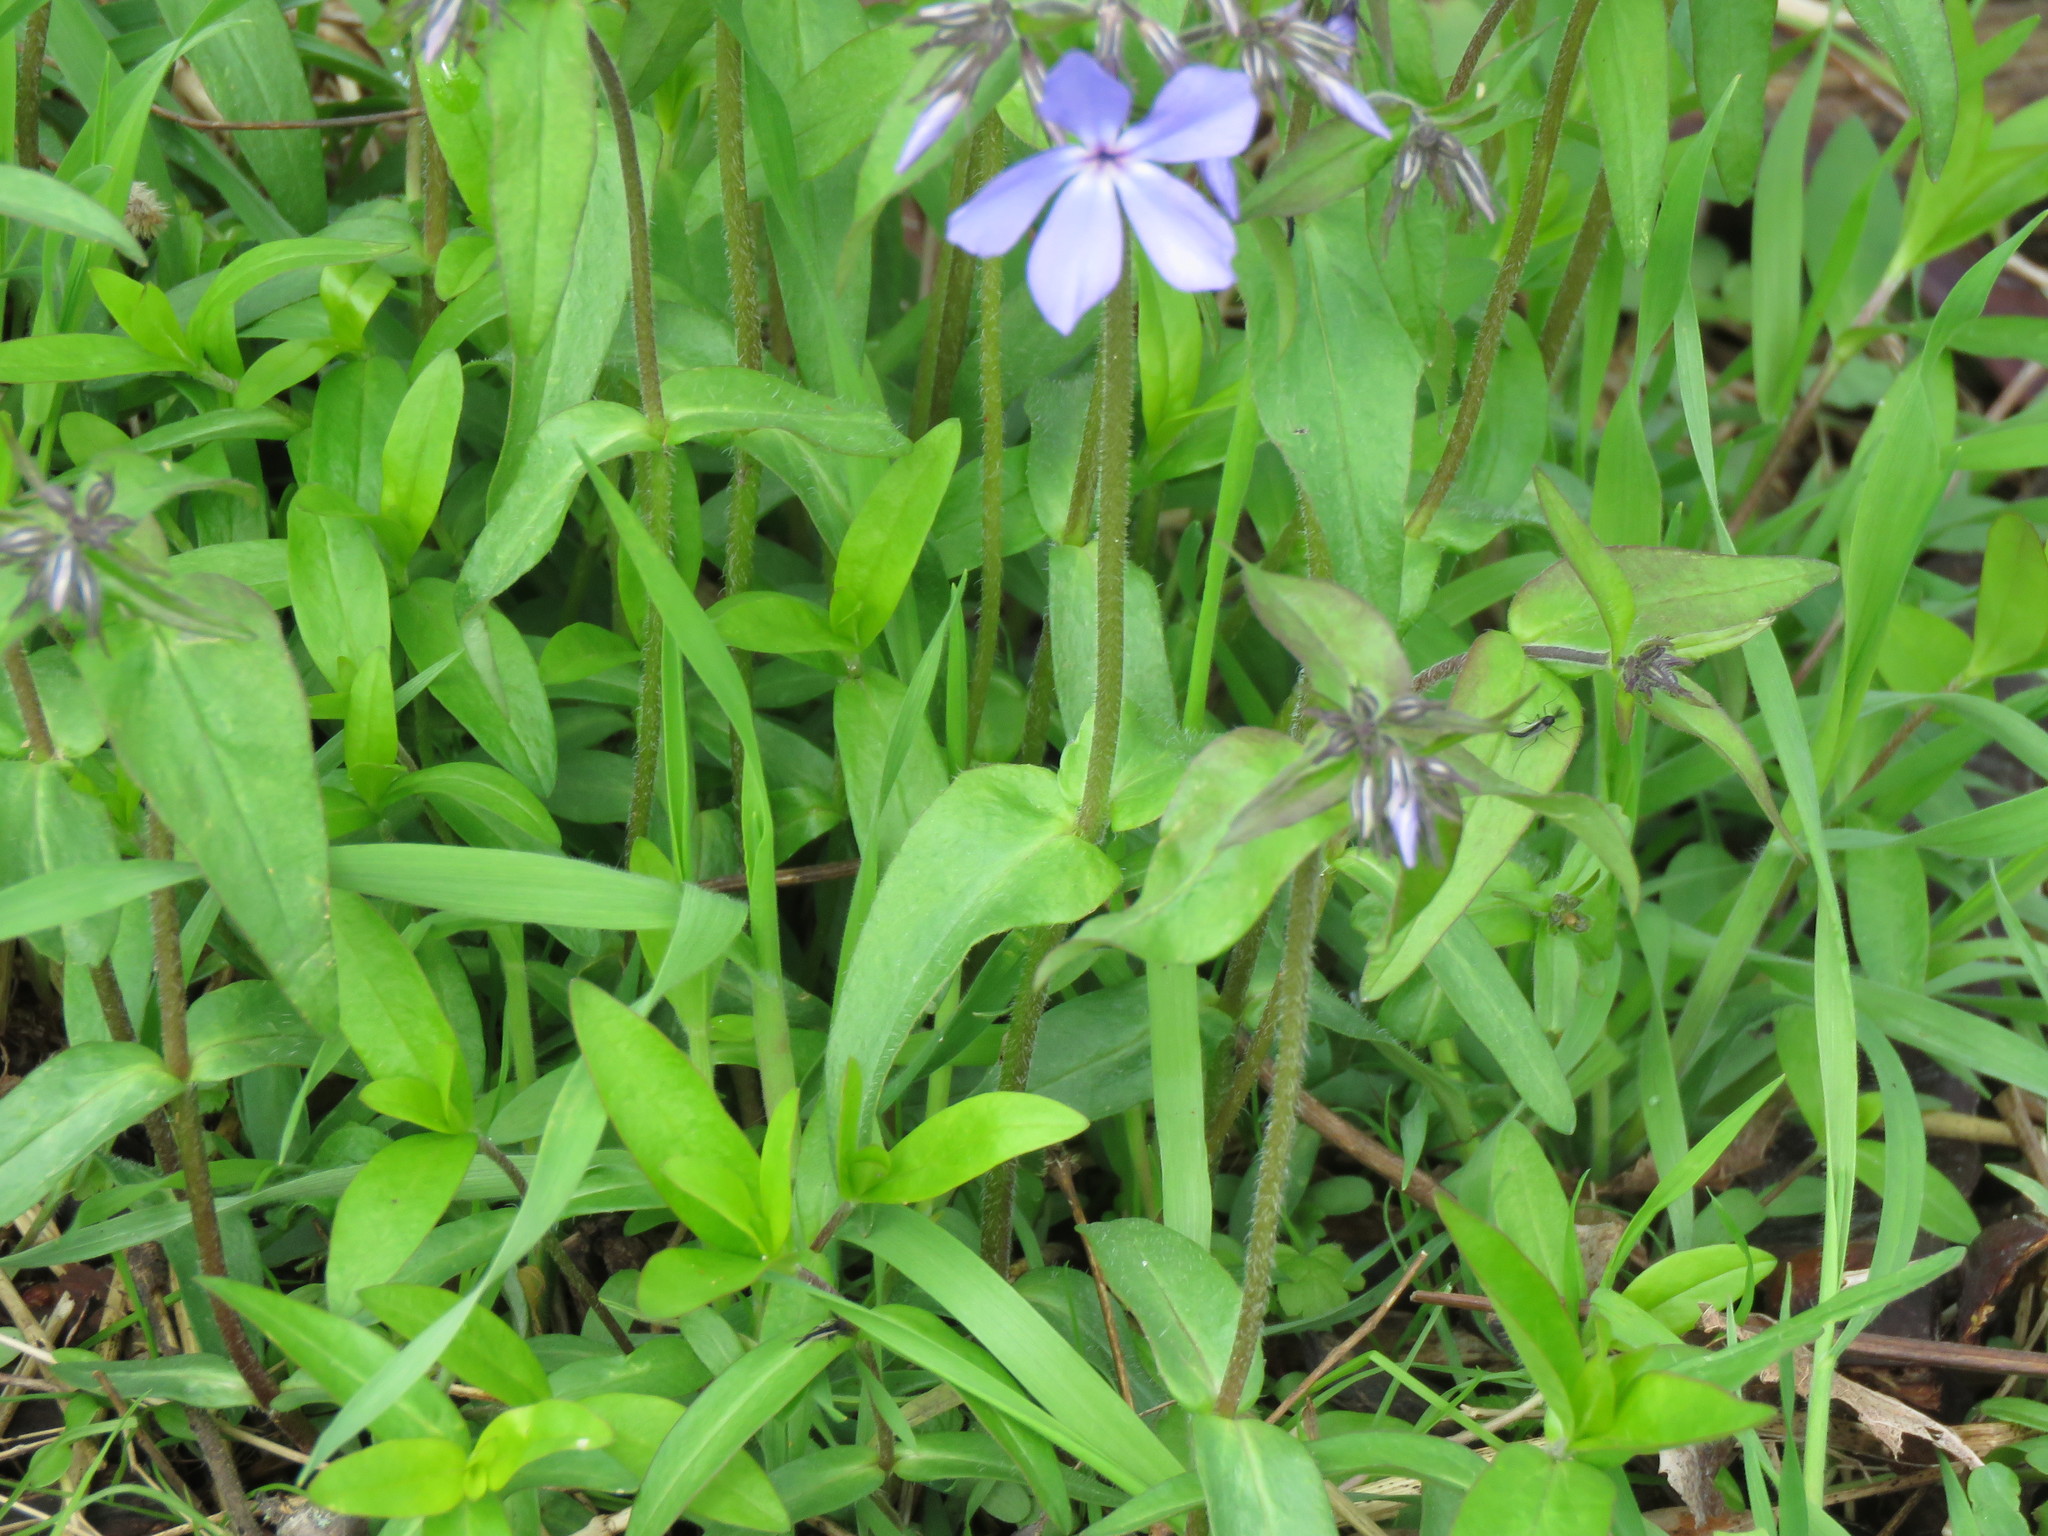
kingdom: Plantae
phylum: Tracheophyta
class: Magnoliopsida
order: Ericales
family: Polemoniaceae
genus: Phlox
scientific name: Phlox divaricata
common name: Blue phlox
